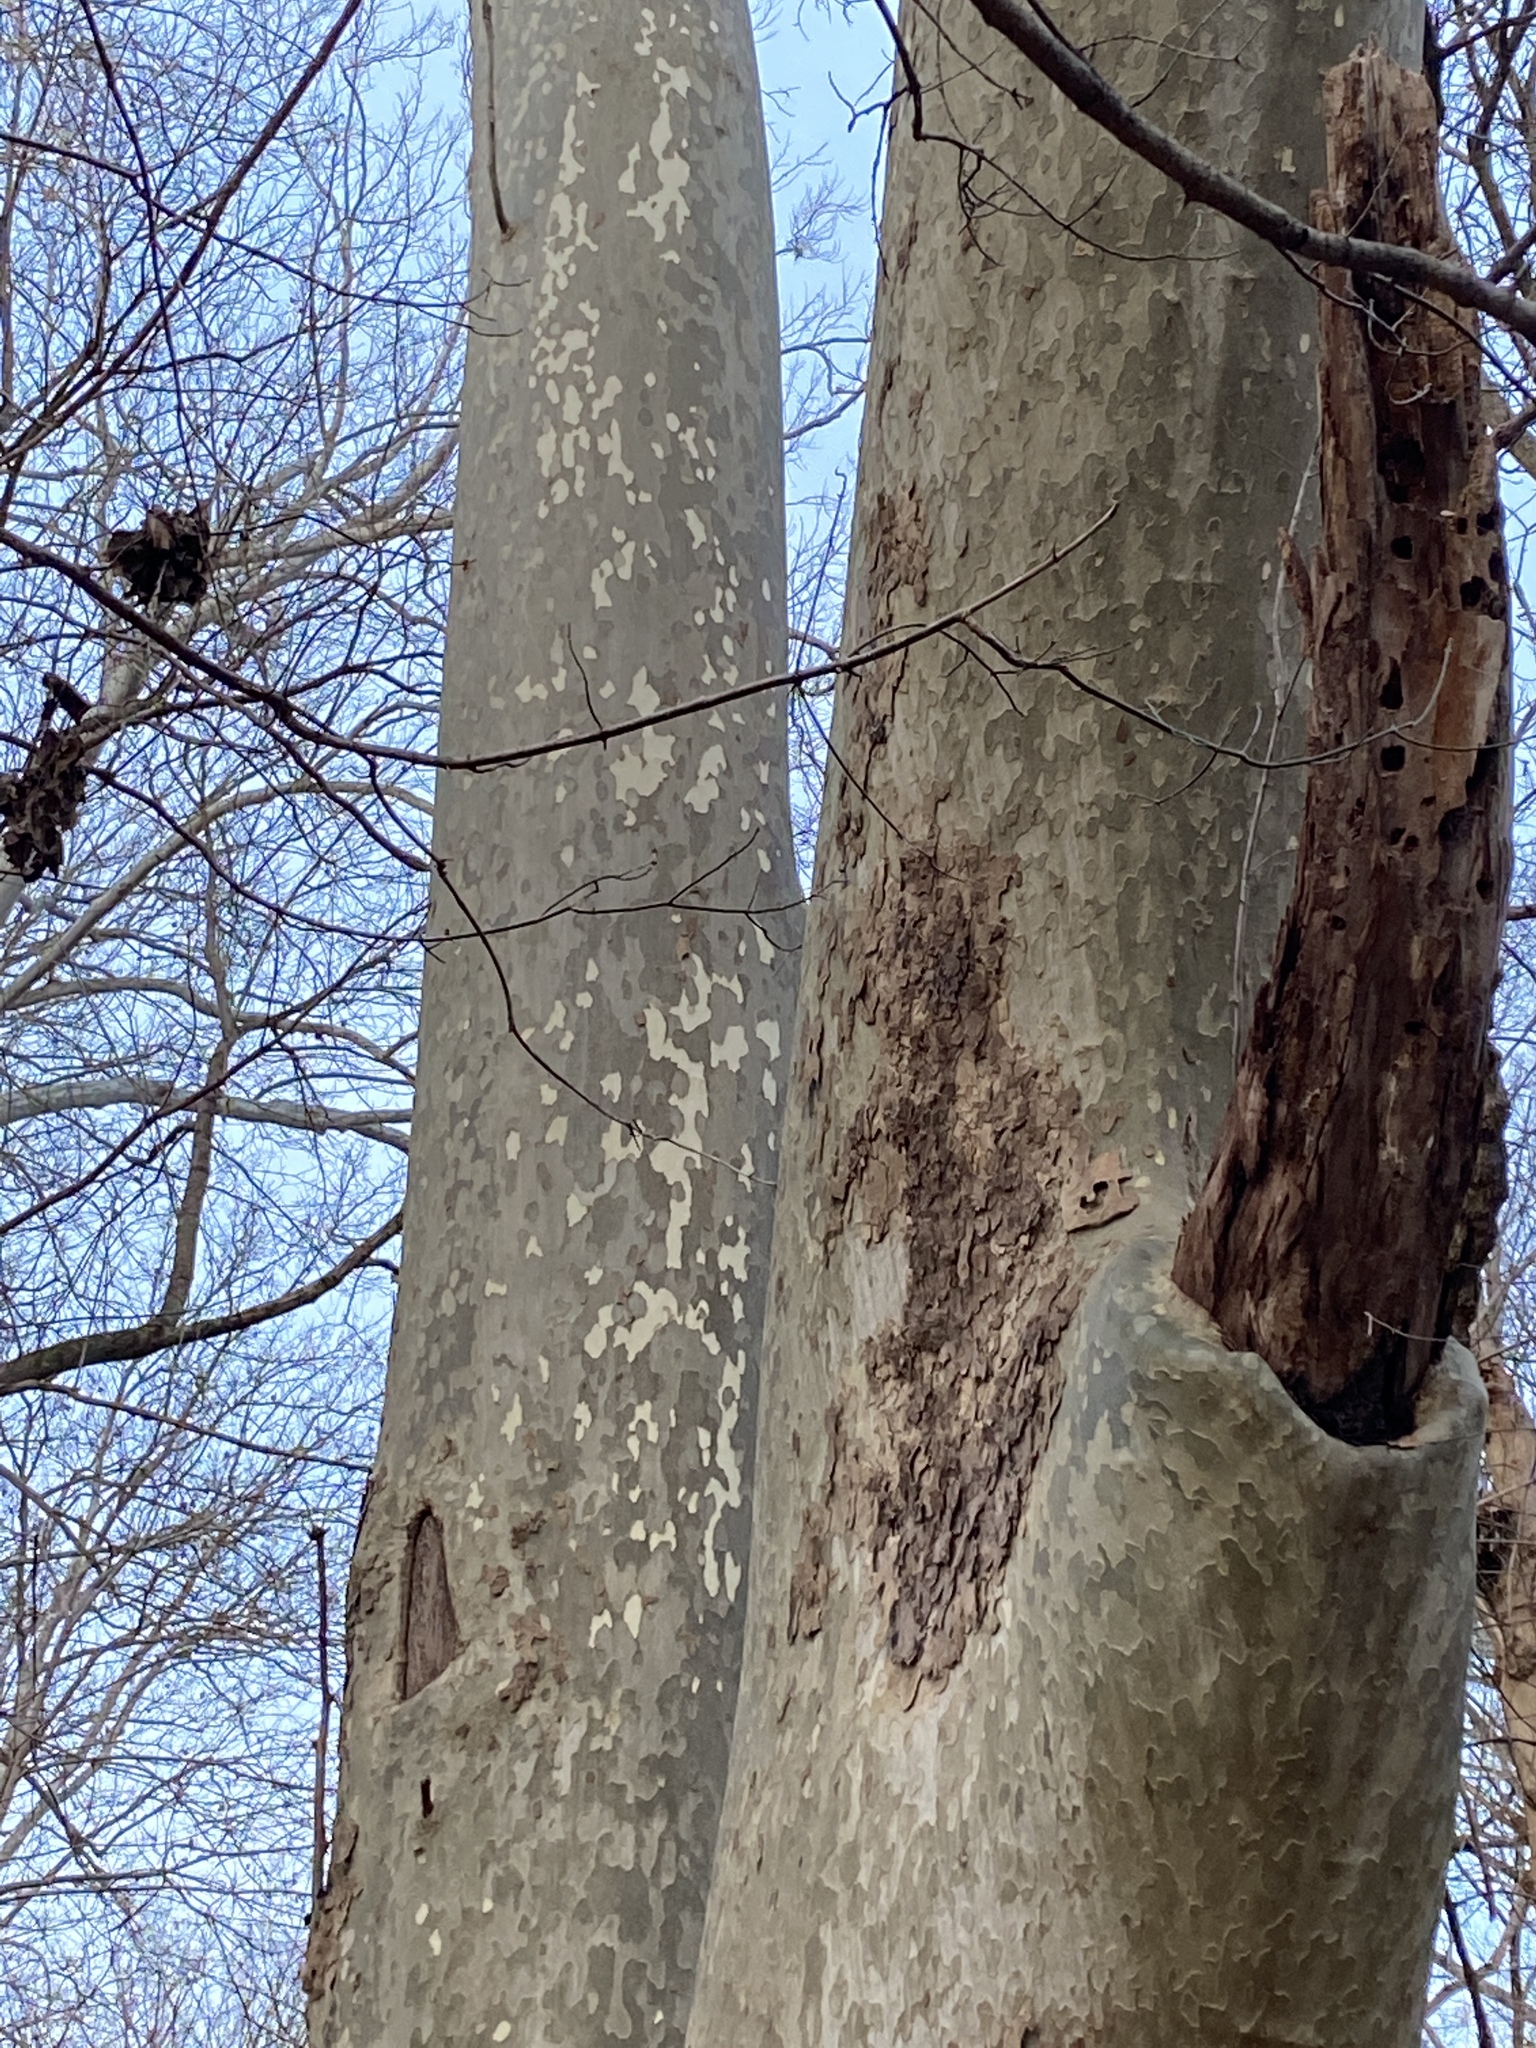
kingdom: Plantae
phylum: Tracheophyta
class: Magnoliopsida
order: Proteales
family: Platanaceae
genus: Platanus
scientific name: Platanus occidentalis
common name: American sycamore
